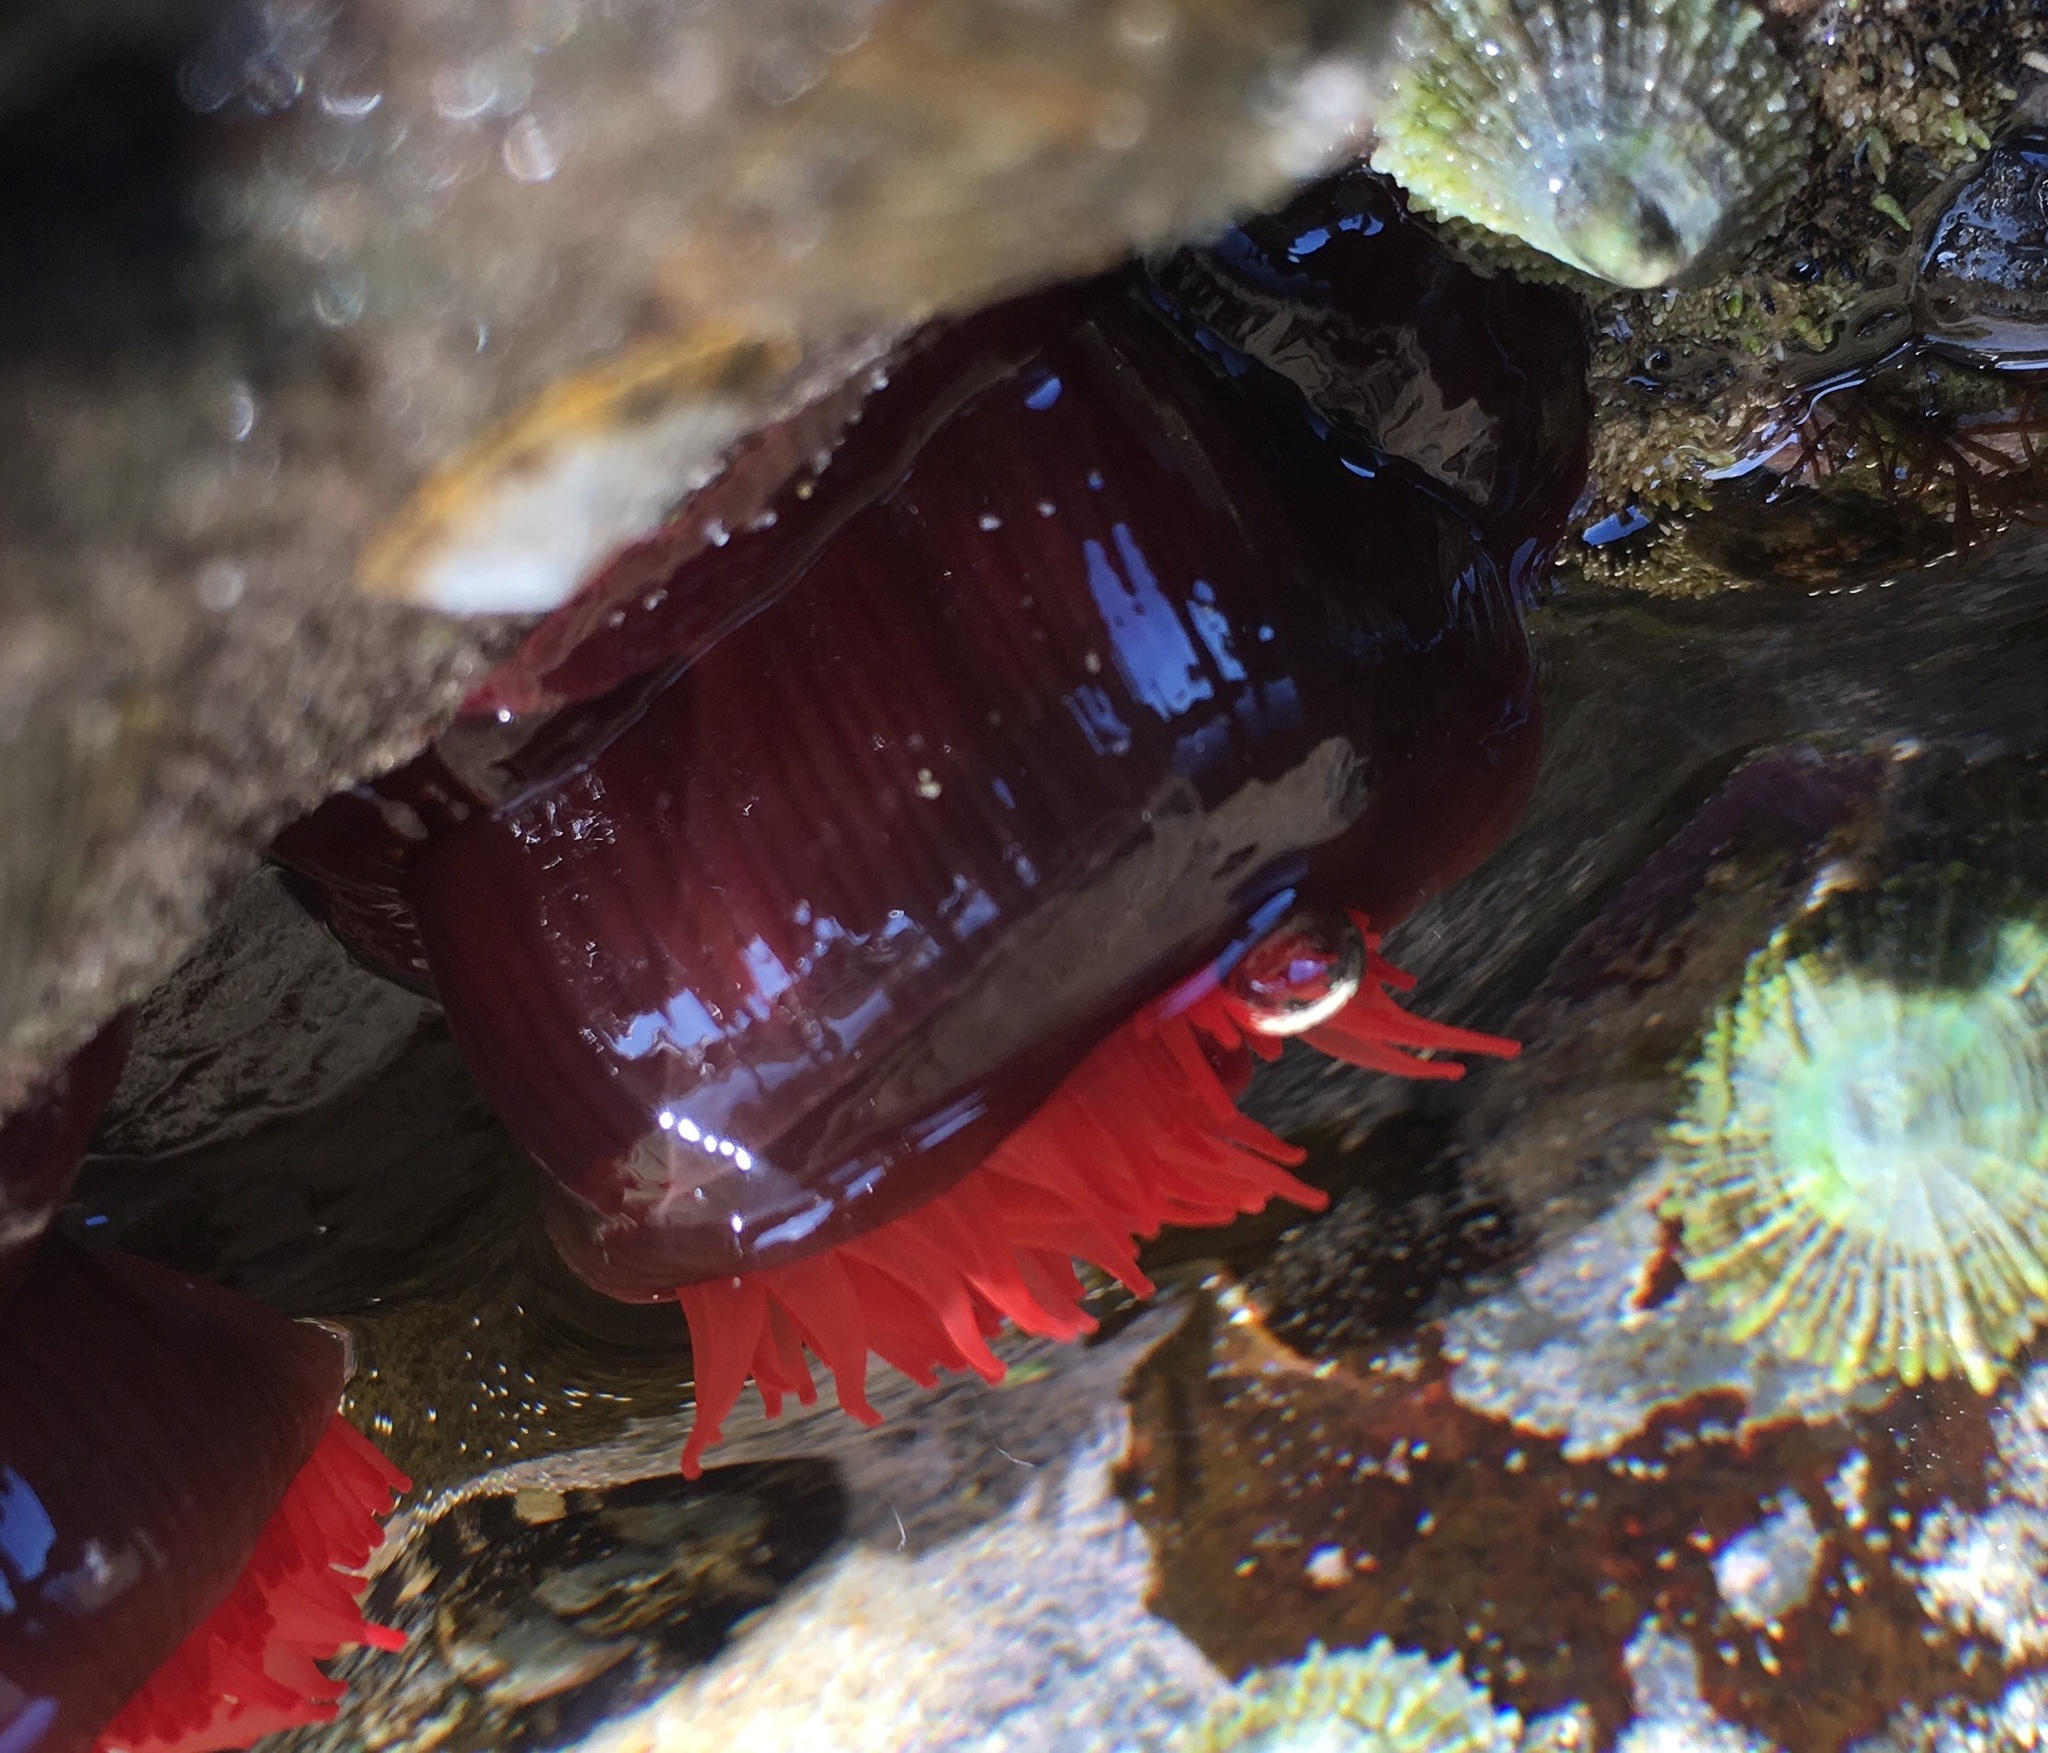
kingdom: Animalia
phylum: Cnidaria
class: Anthozoa
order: Actiniaria
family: Actiniidae
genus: Actinia
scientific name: Actinia tenebrosa
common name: Waratah anemone
